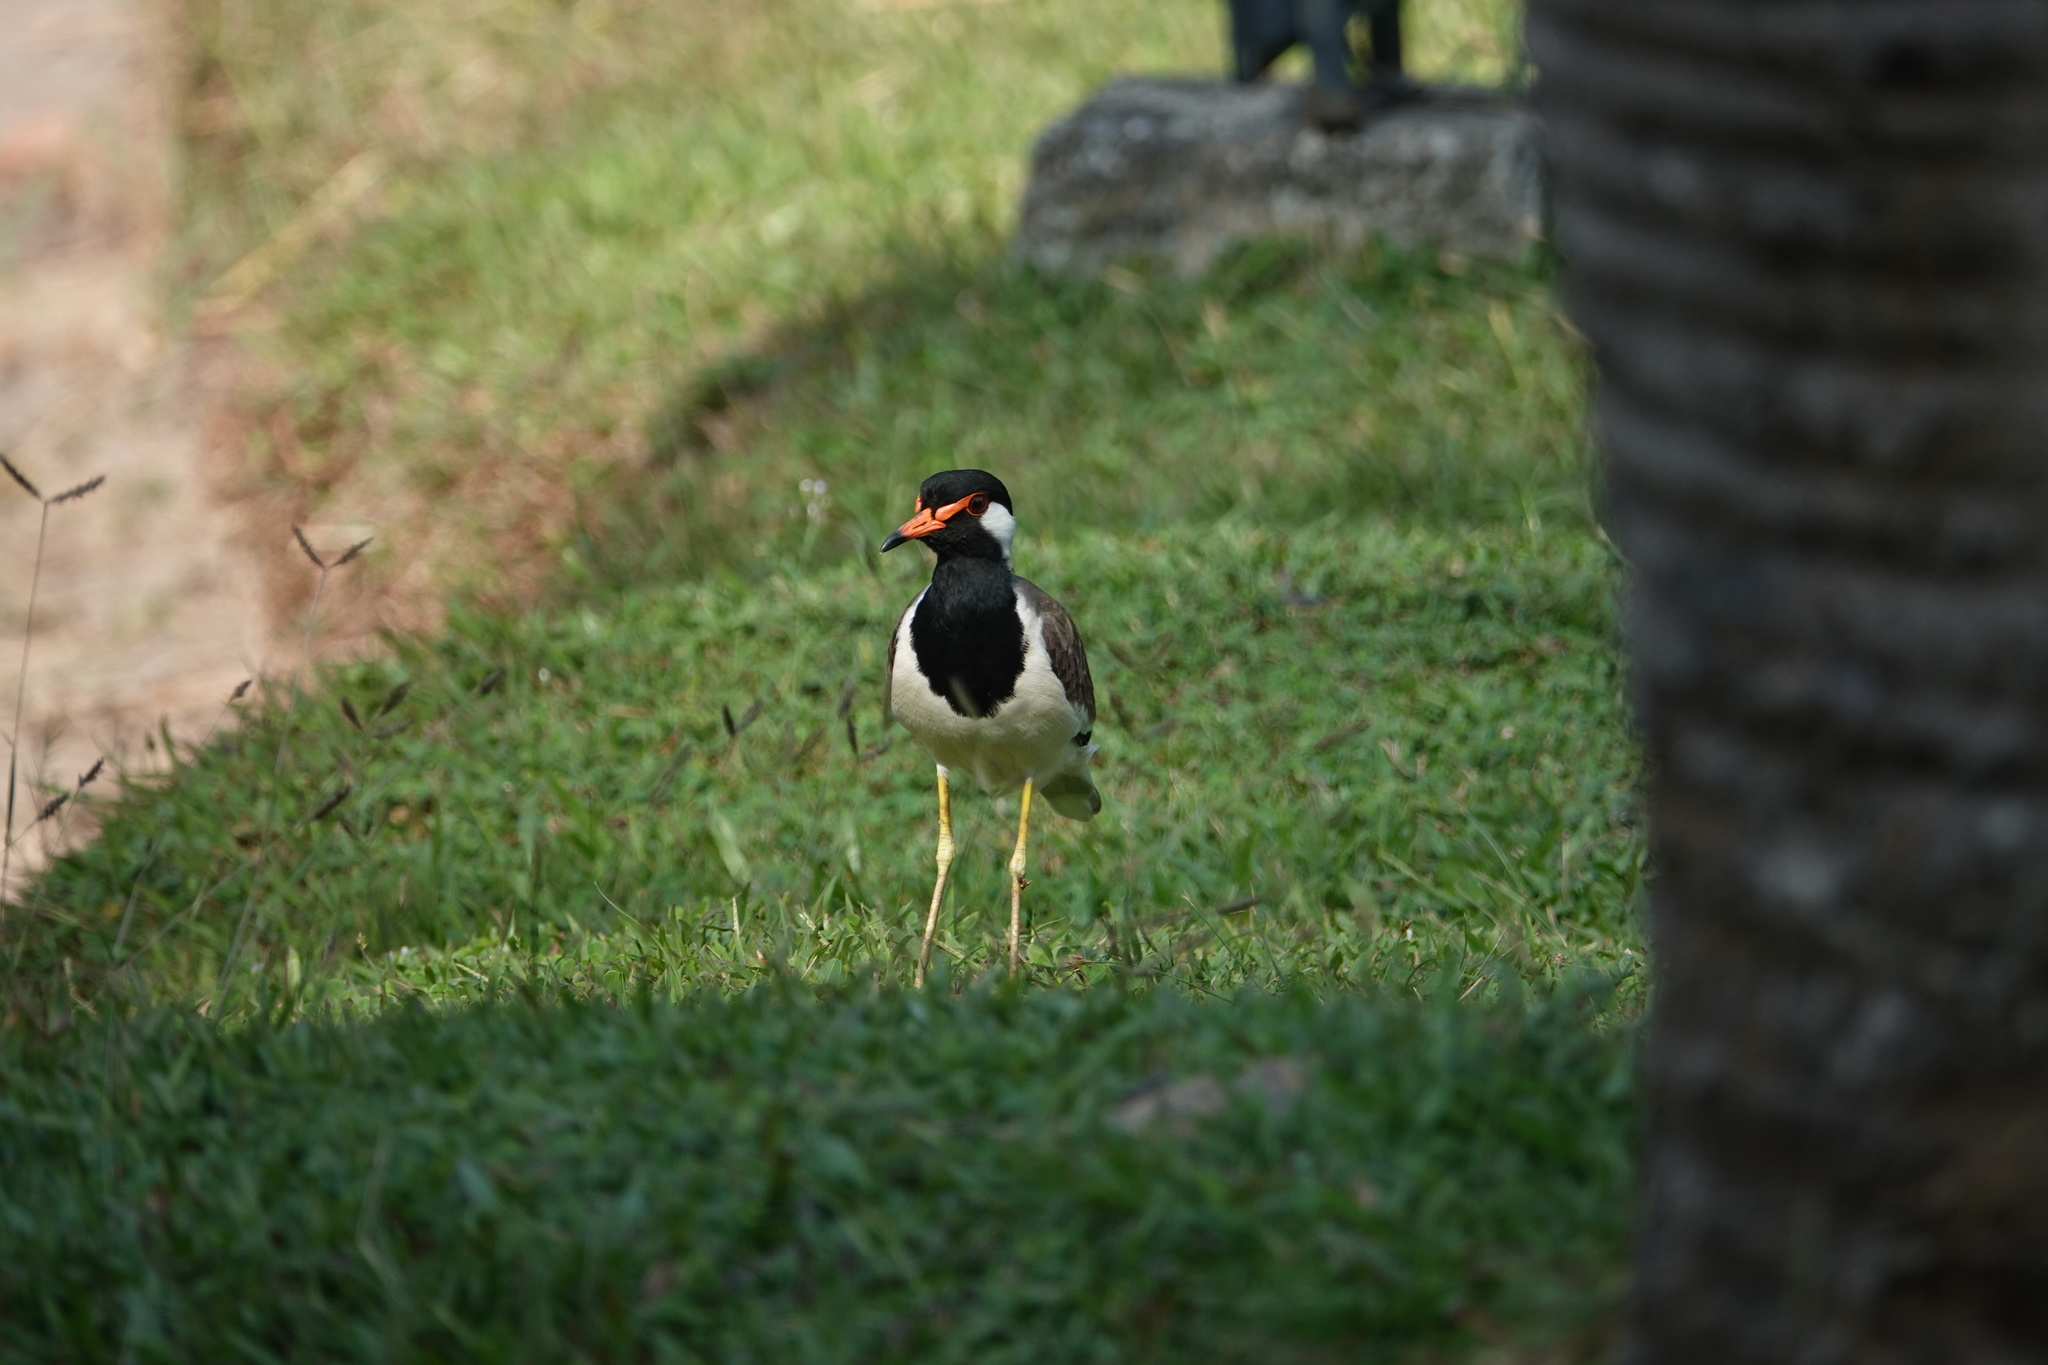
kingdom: Animalia
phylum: Chordata
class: Aves
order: Charadriiformes
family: Charadriidae
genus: Vanellus
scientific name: Vanellus indicus
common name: Red-wattled lapwing
